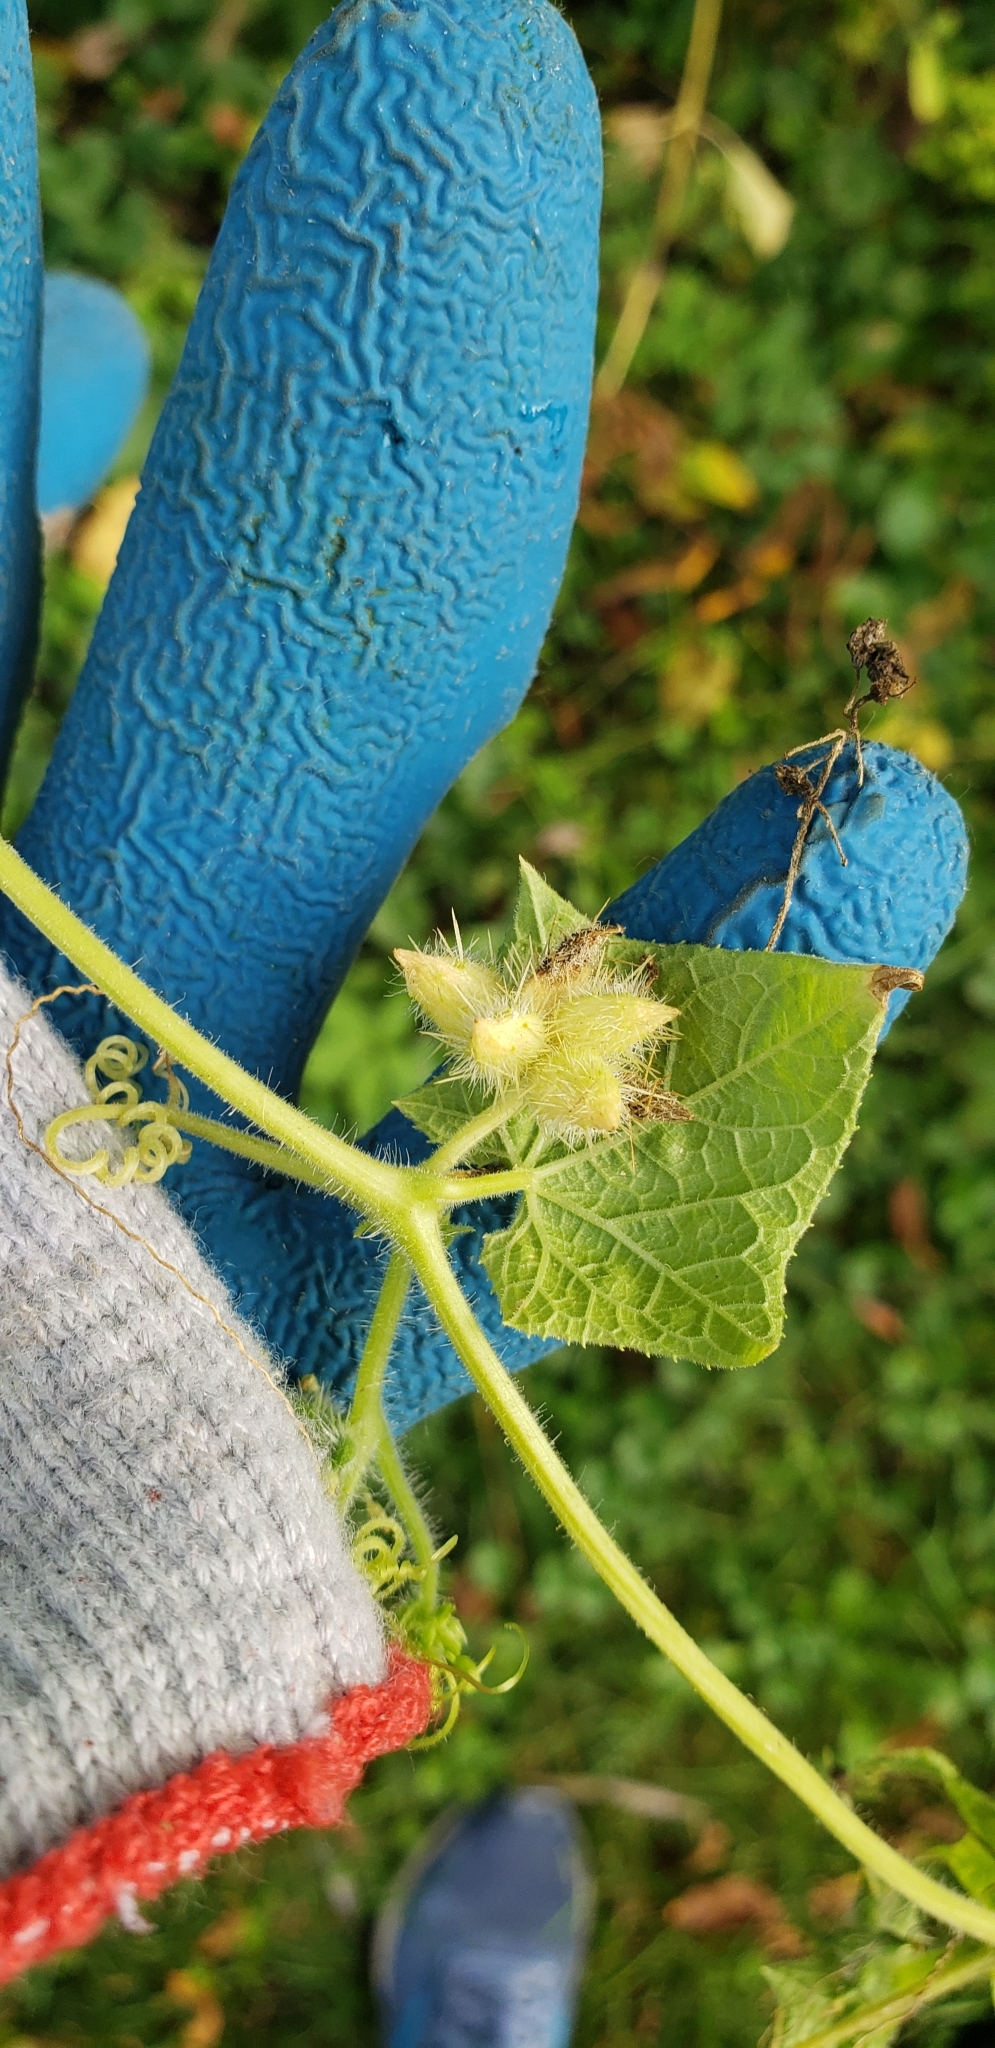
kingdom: Plantae
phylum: Tracheophyta
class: Magnoliopsida
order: Cucurbitales
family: Cucurbitaceae
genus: Sicyos
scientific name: Sicyos angulatus
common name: Angled burr cucumber
